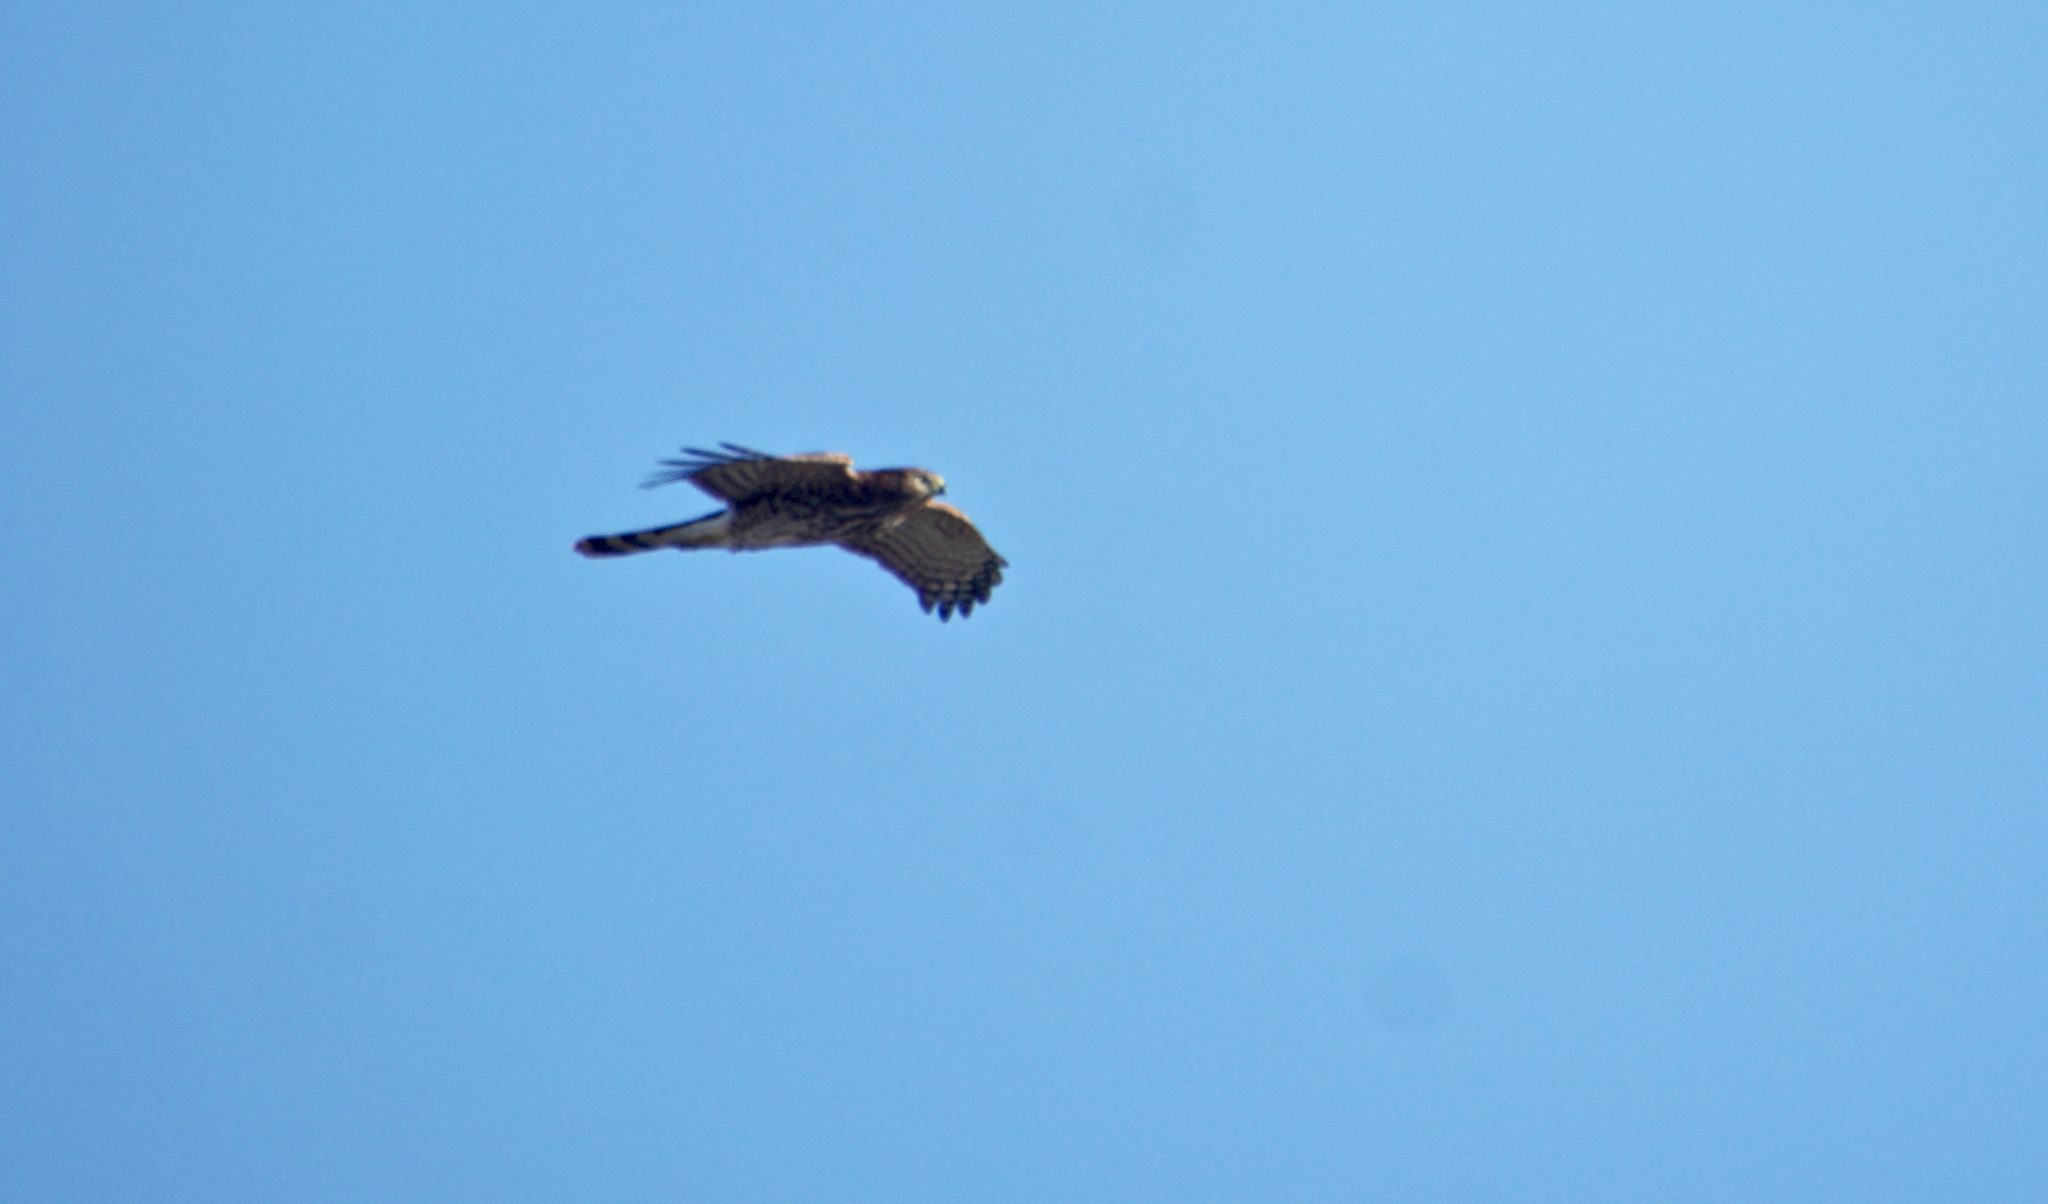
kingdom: Animalia
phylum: Chordata
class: Aves
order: Accipitriformes
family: Accipitridae
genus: Accipiter
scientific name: Accipiter cooperii
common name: Cooper's hawk
